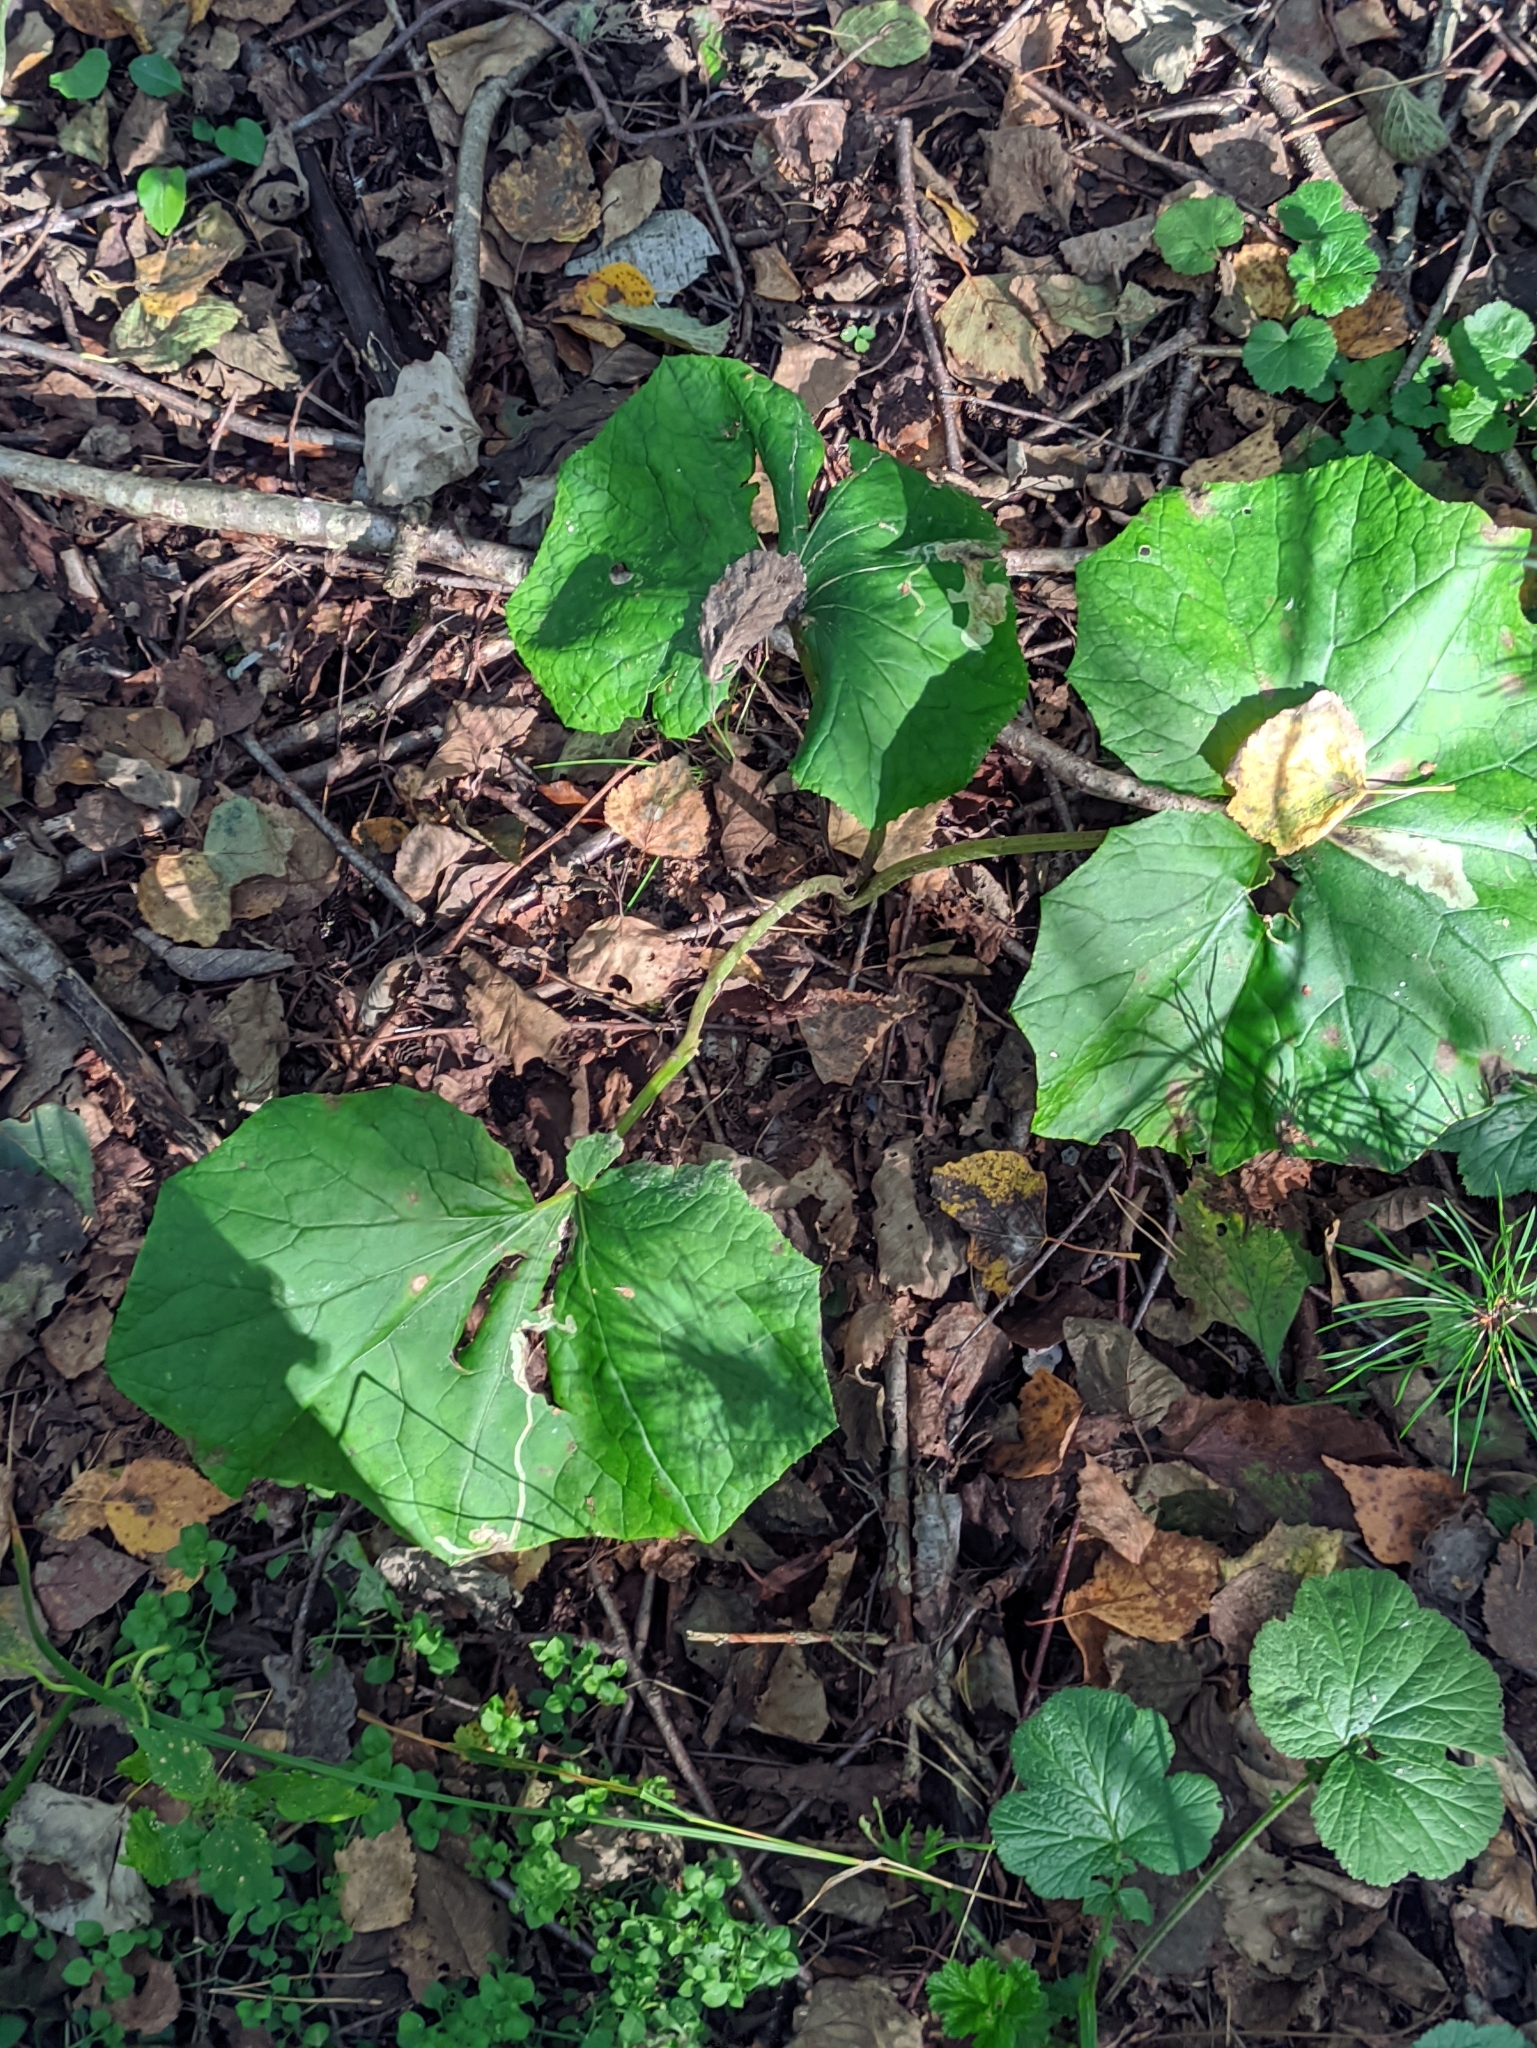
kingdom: Plantae
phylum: Tracheophyta
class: Magnoliopsida
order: Asterales
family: Asteraceae
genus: Tussilago
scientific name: Tussilago farfara
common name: Coltsfoot
